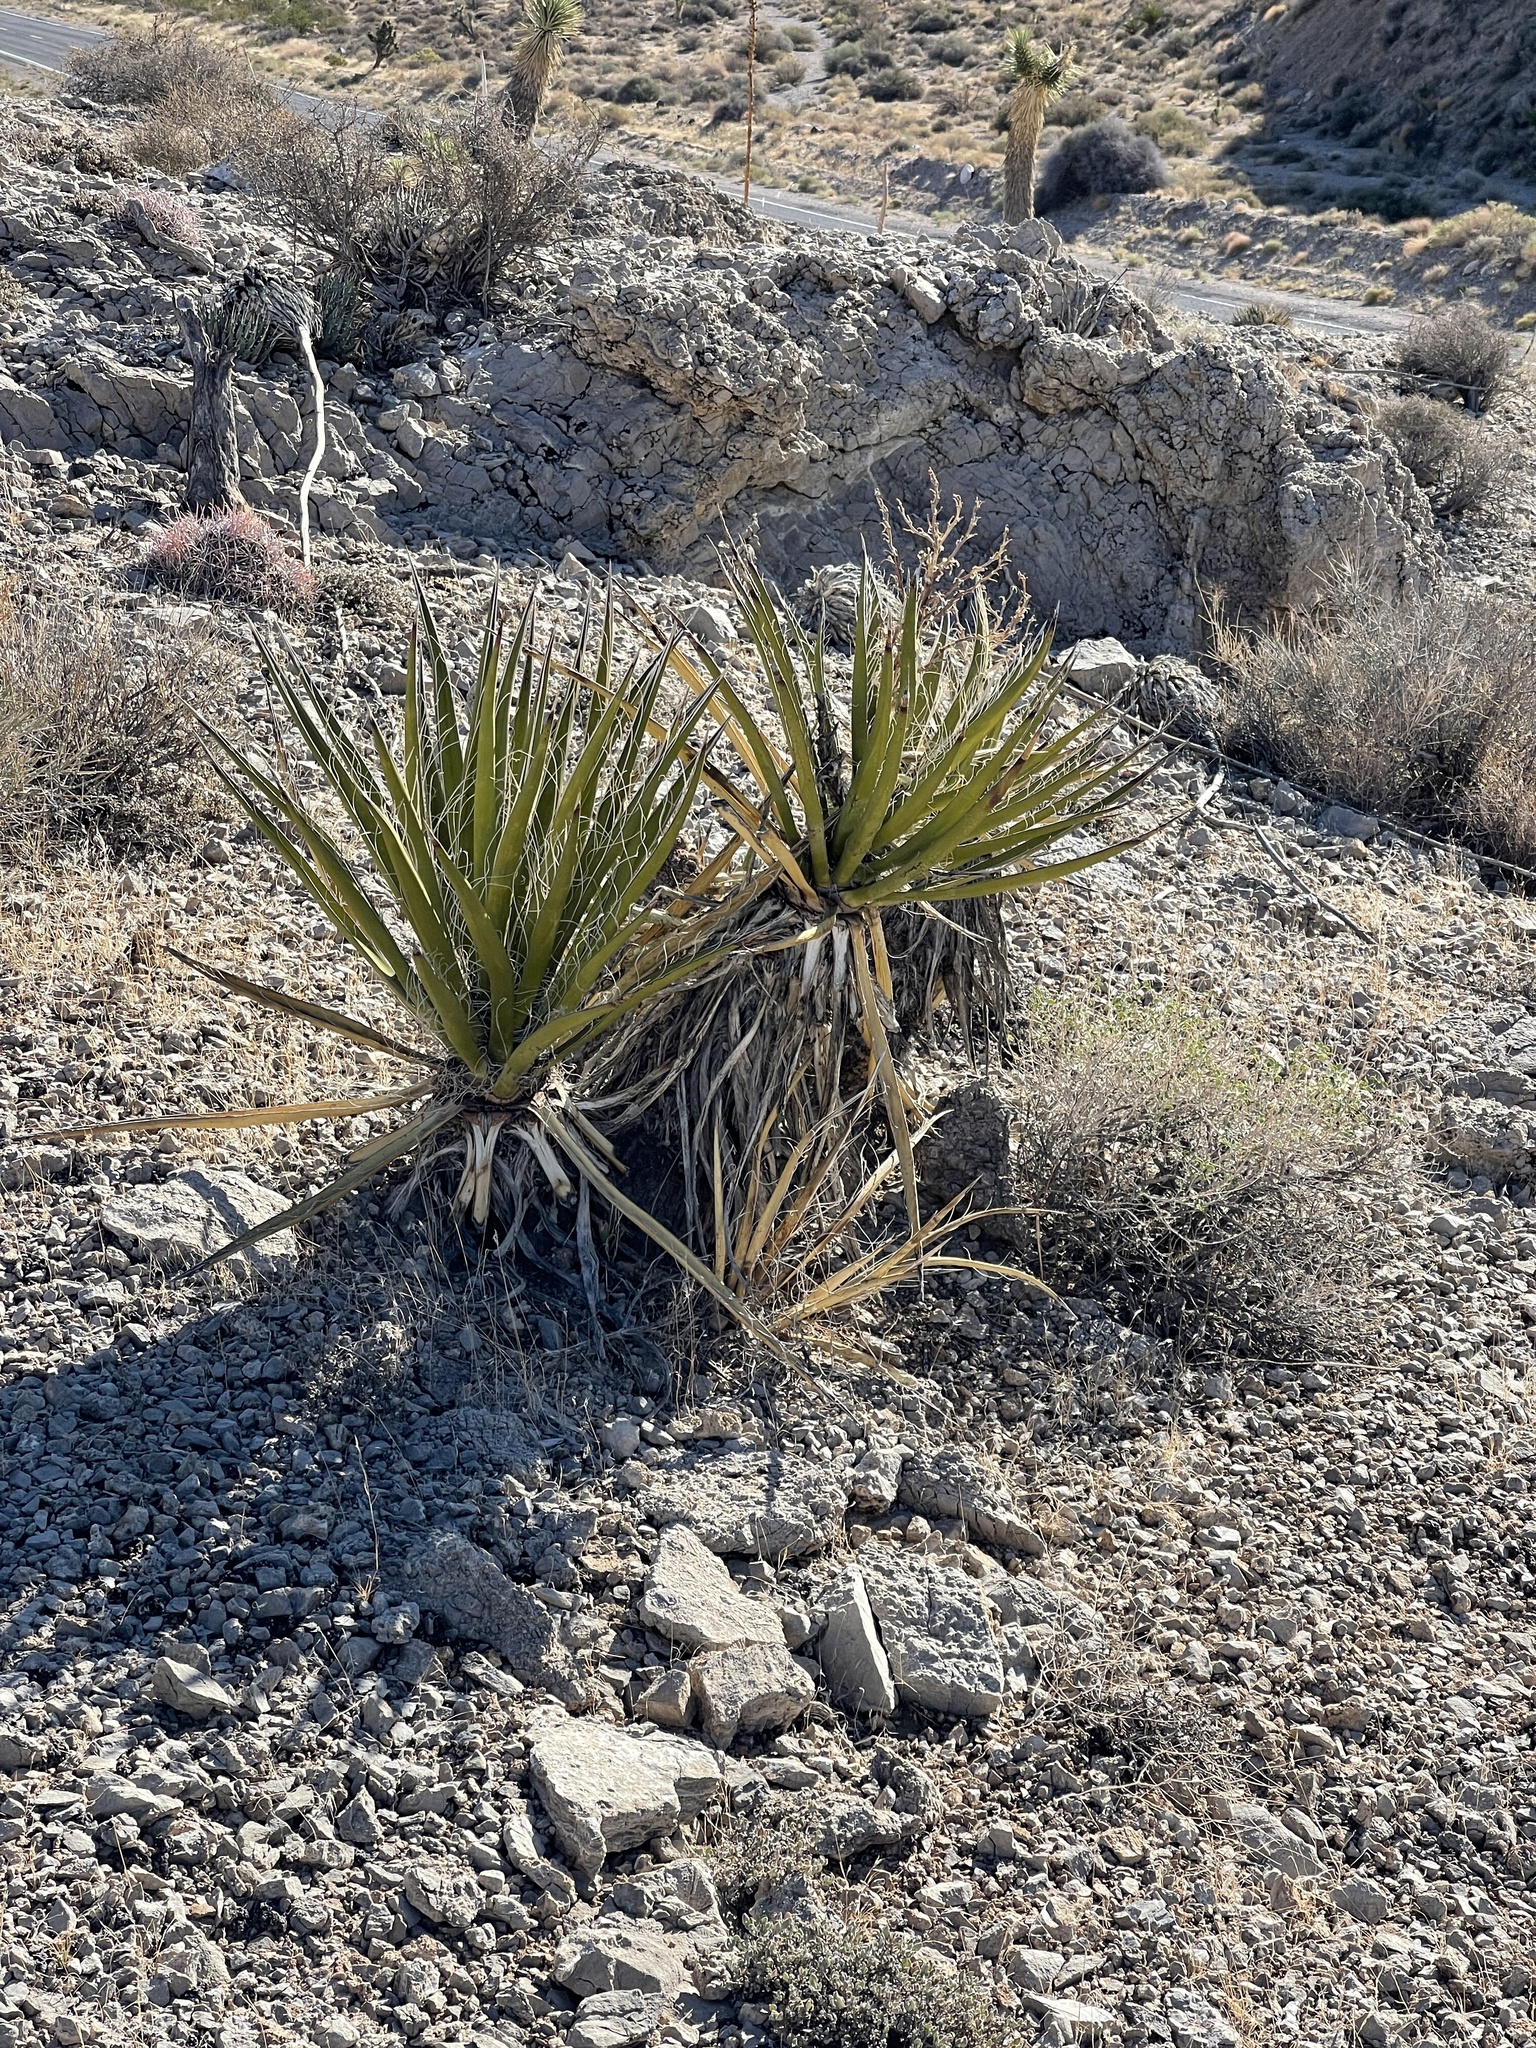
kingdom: Plantae
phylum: Tracheophyta
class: Liliopsida
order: Asparagales
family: Asparagaceae
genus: Yucca
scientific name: Yucca schidigera
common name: Mojave yucca
